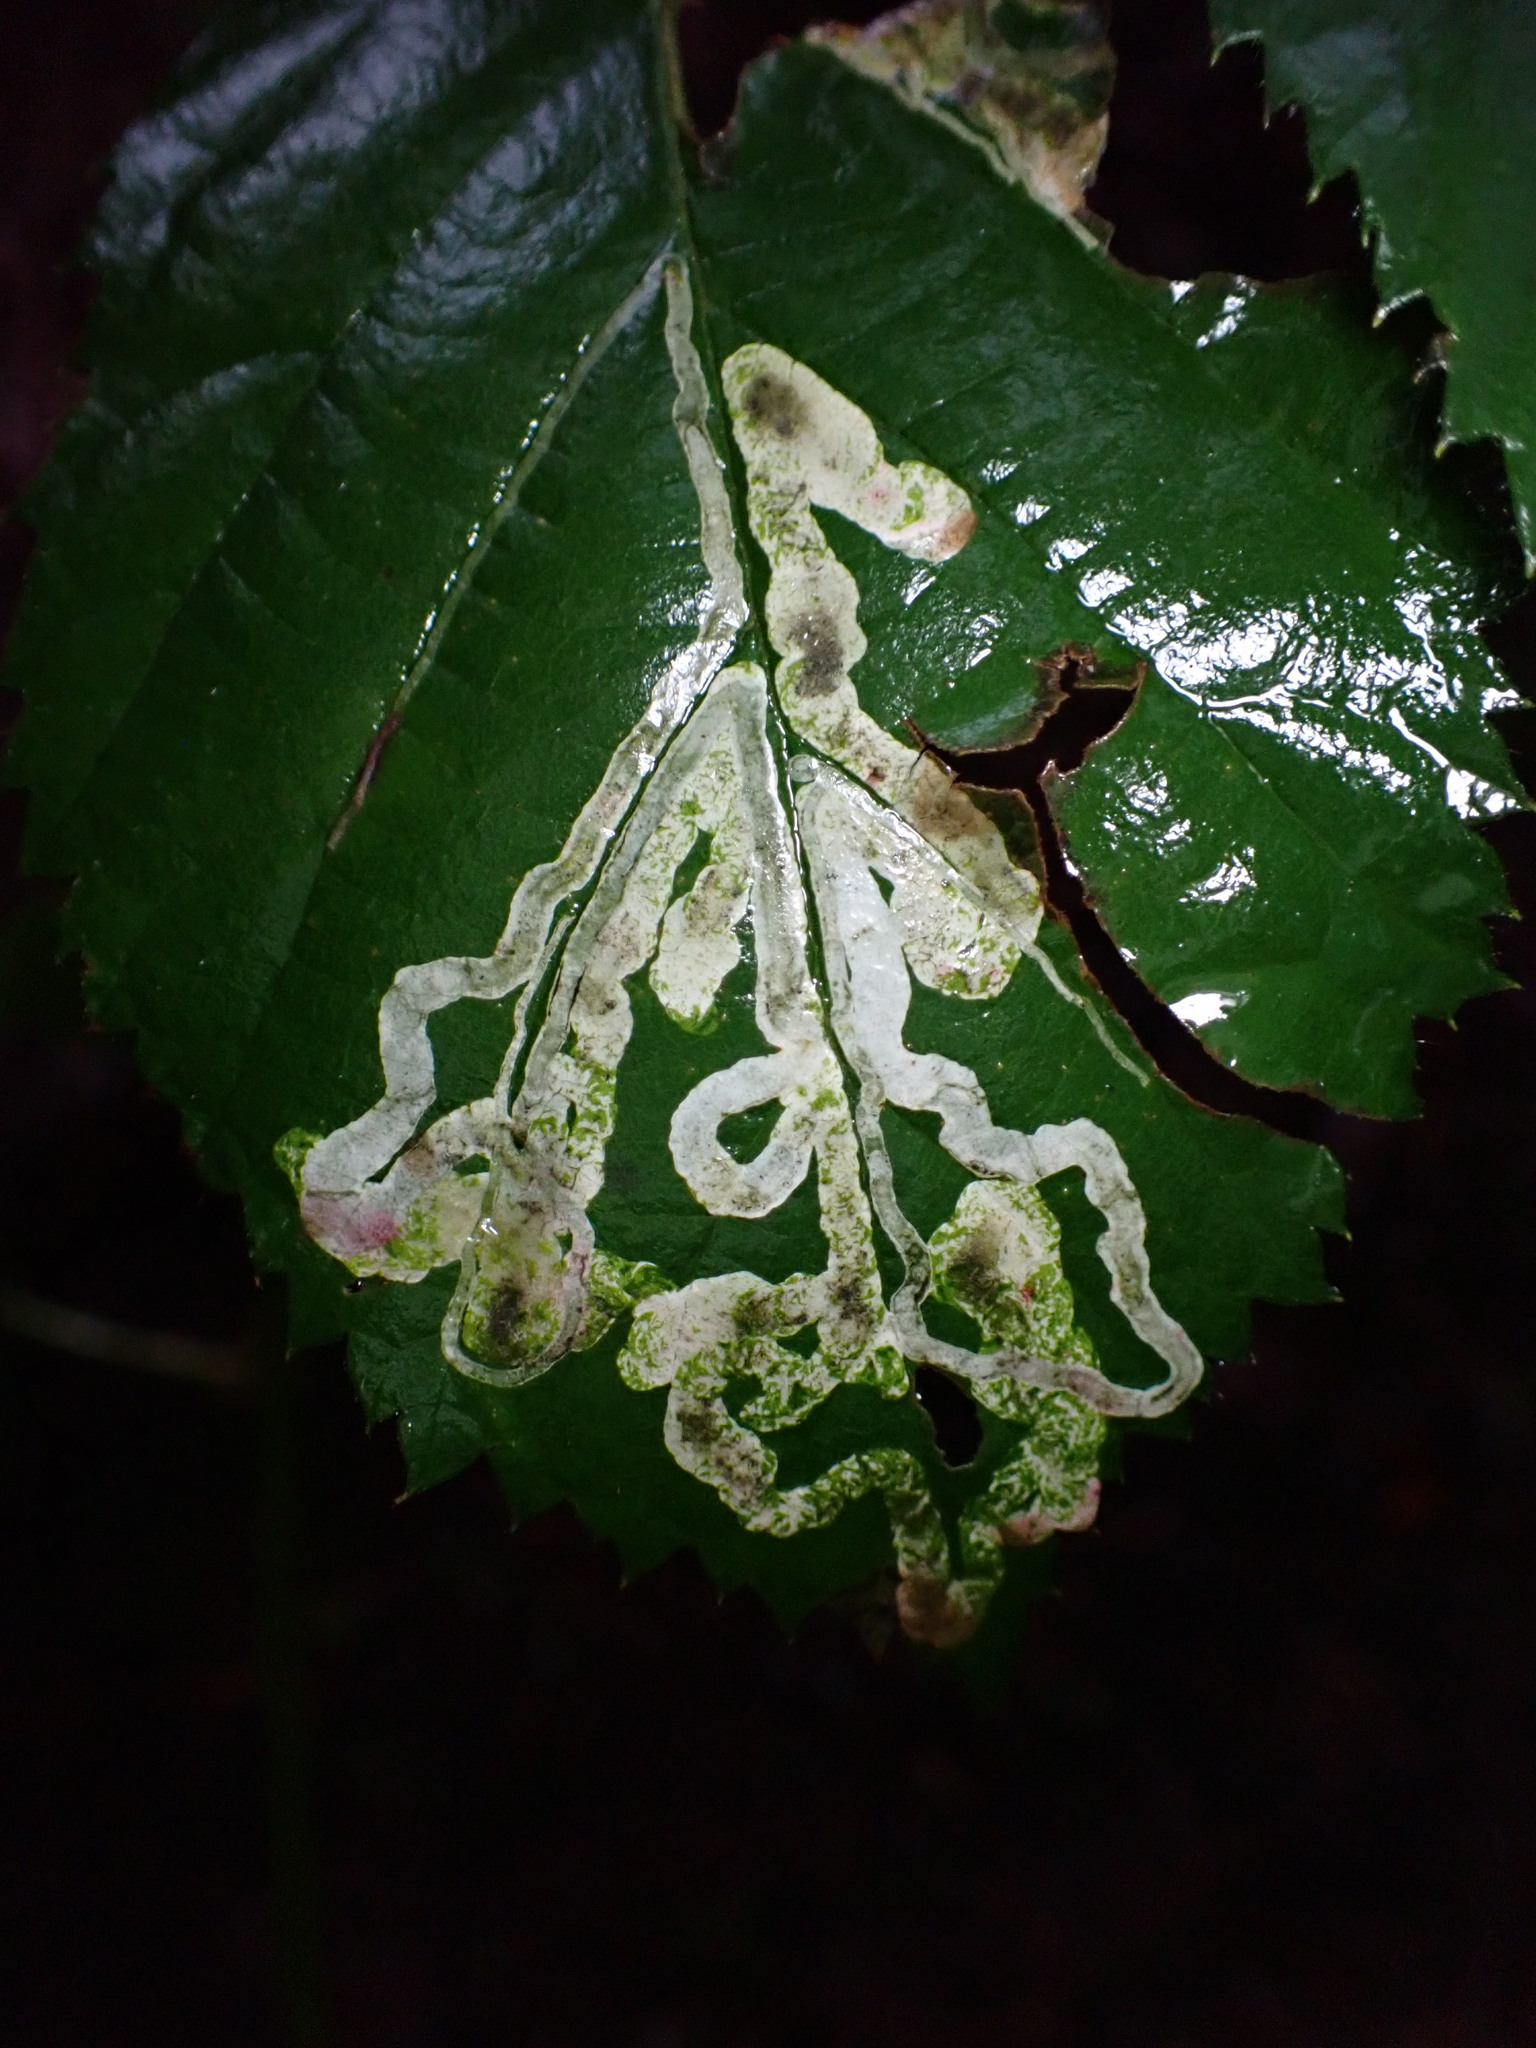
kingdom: Animalia
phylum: Arthropoda
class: Insecta
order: Diptera
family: Agromyzidae
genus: Agromyza
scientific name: Agromyza vockerothi
